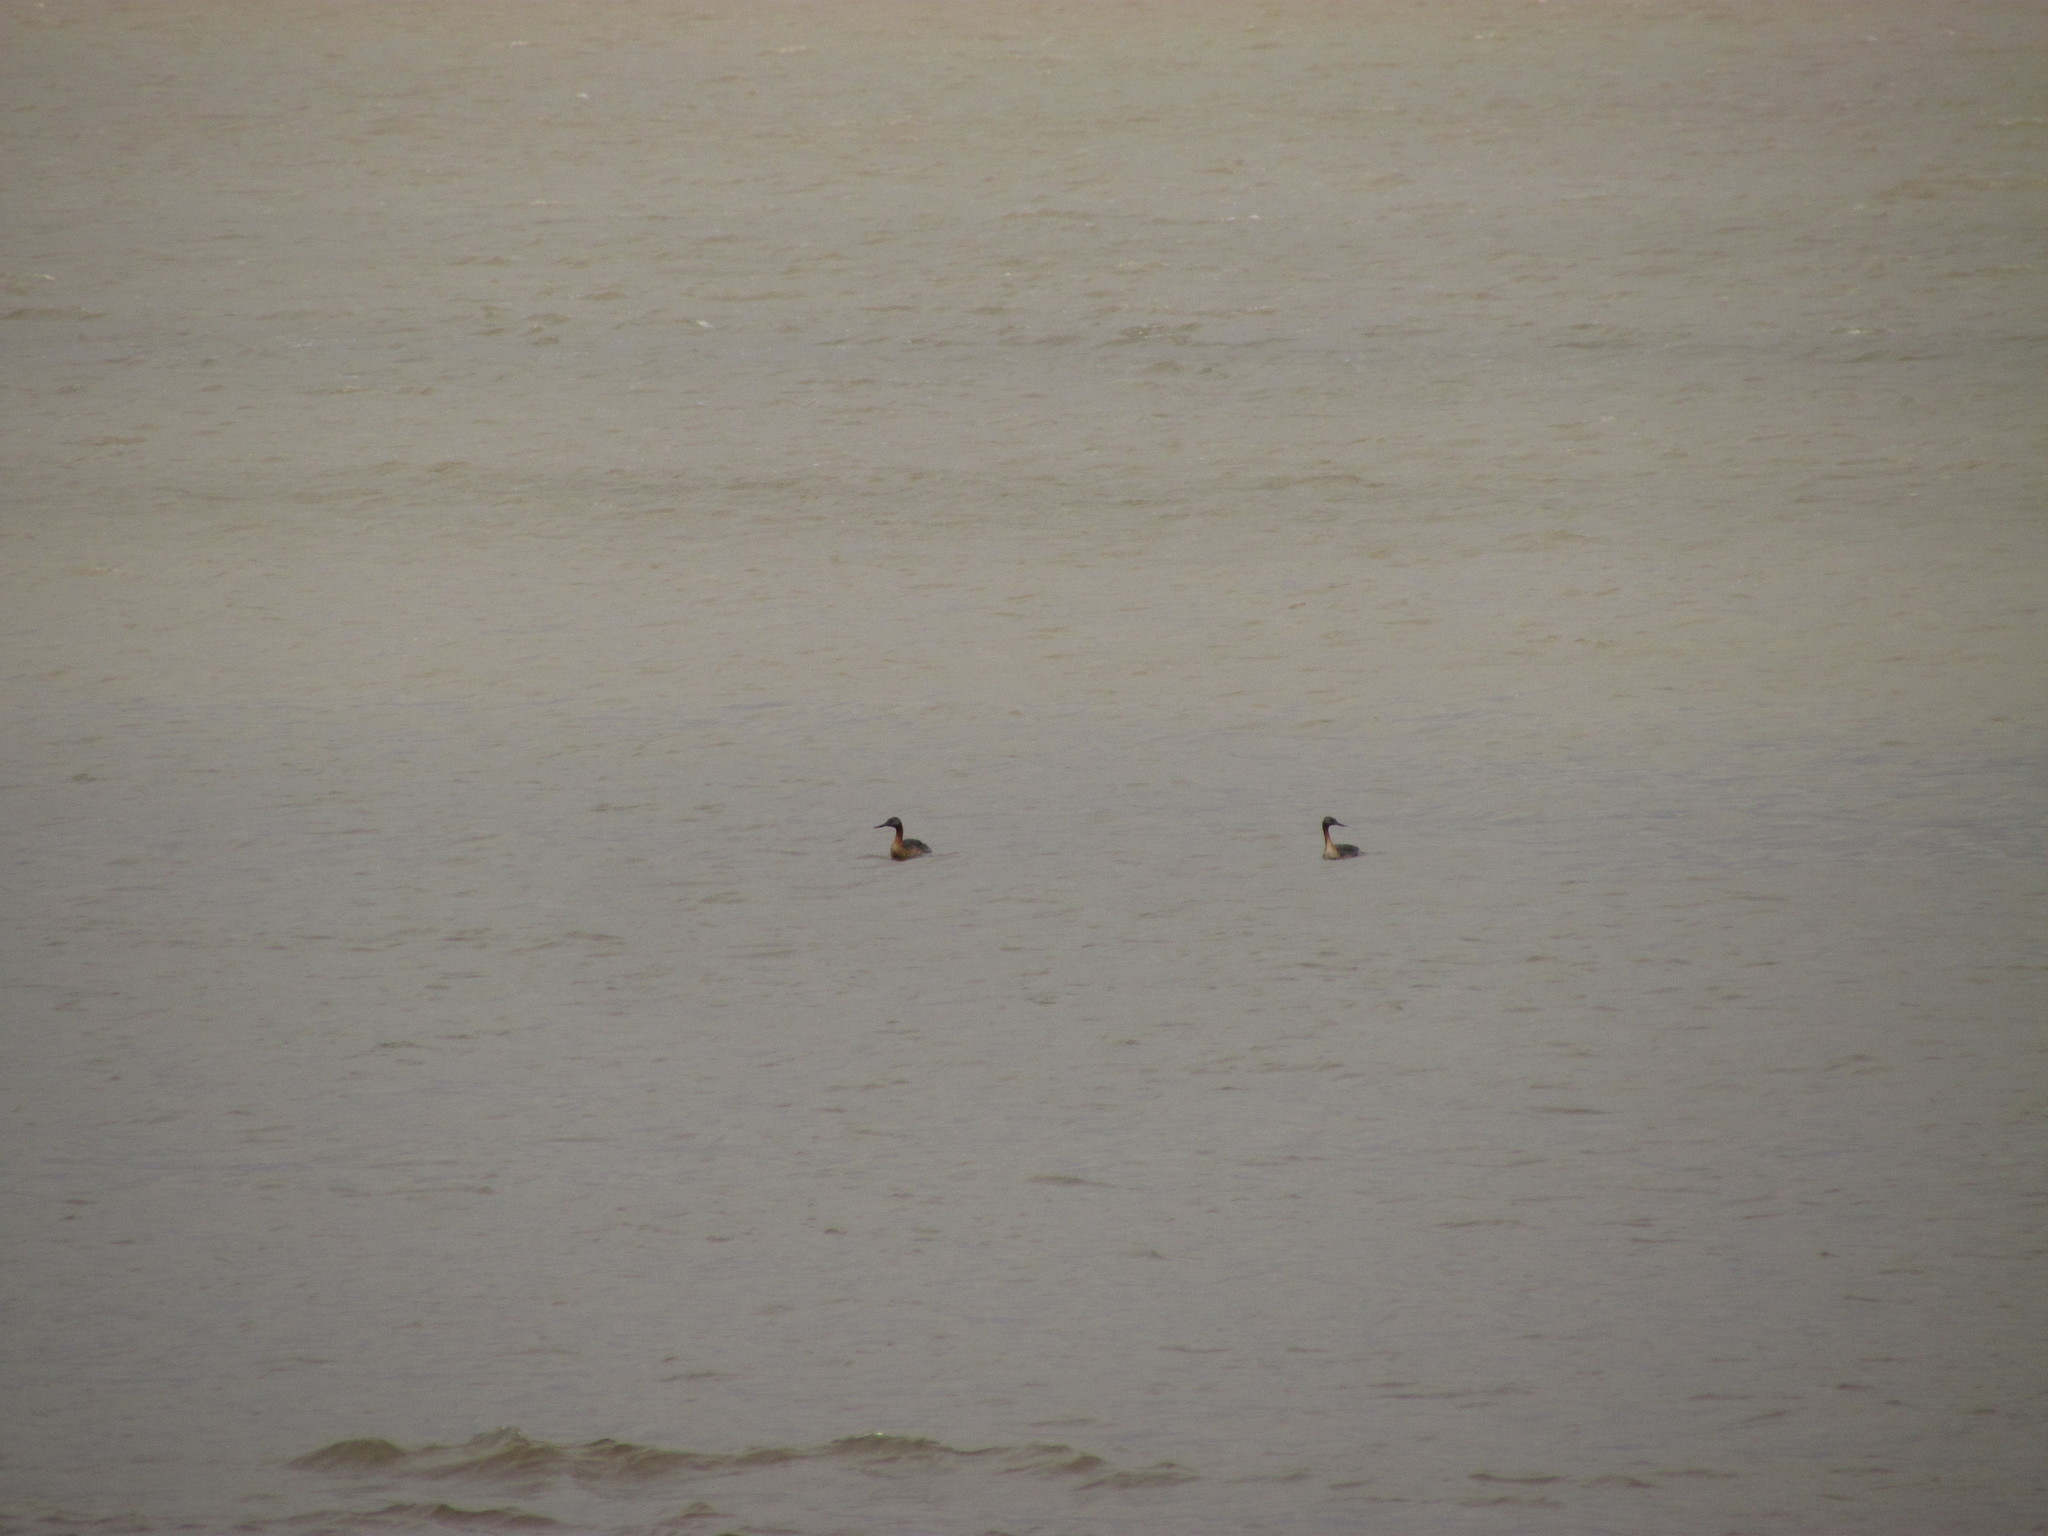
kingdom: Animalia
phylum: Chordata
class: Aves
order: Podicipediformes
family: Podicipedidae
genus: Podiceps
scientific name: Podiceps major
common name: Great grebe
